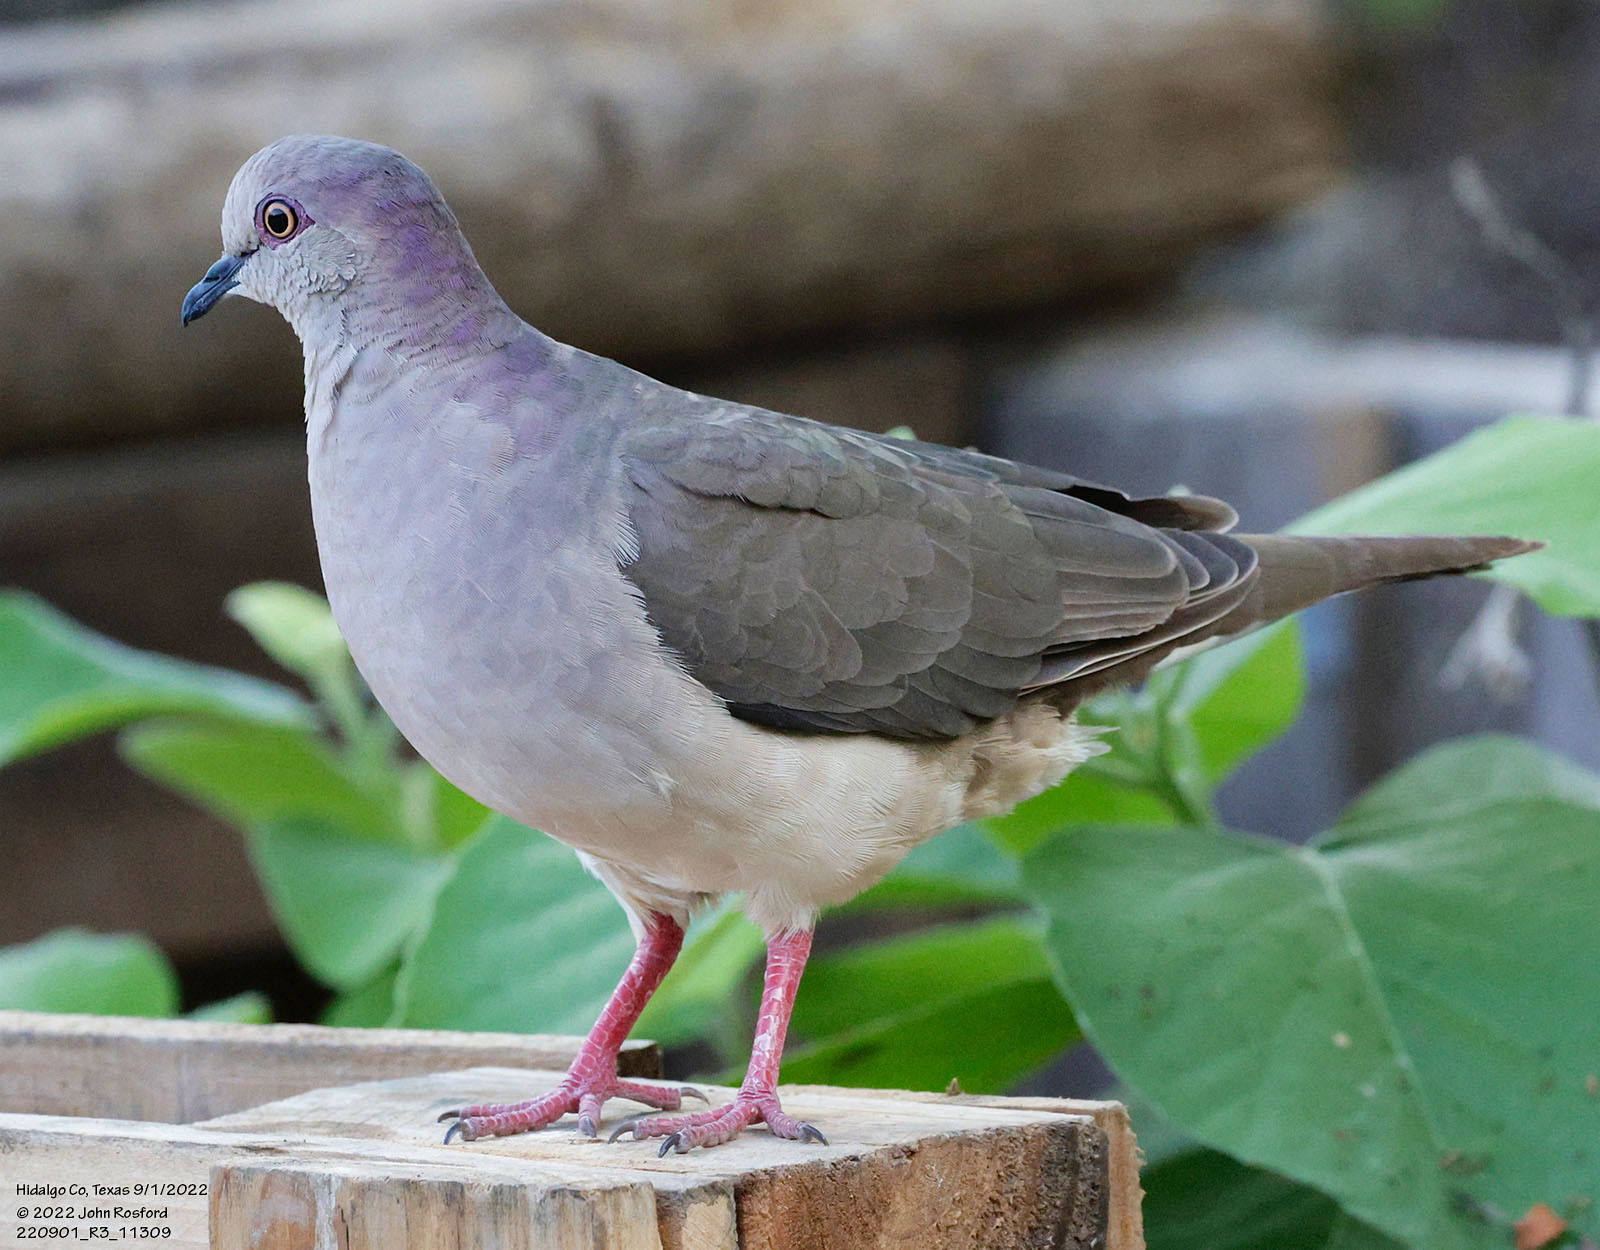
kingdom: Animalia
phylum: Chordata
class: Aves
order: Columbiformes
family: Columbidae
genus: Leptotila
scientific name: Leptotila verreauxi
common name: White-tipped dove
